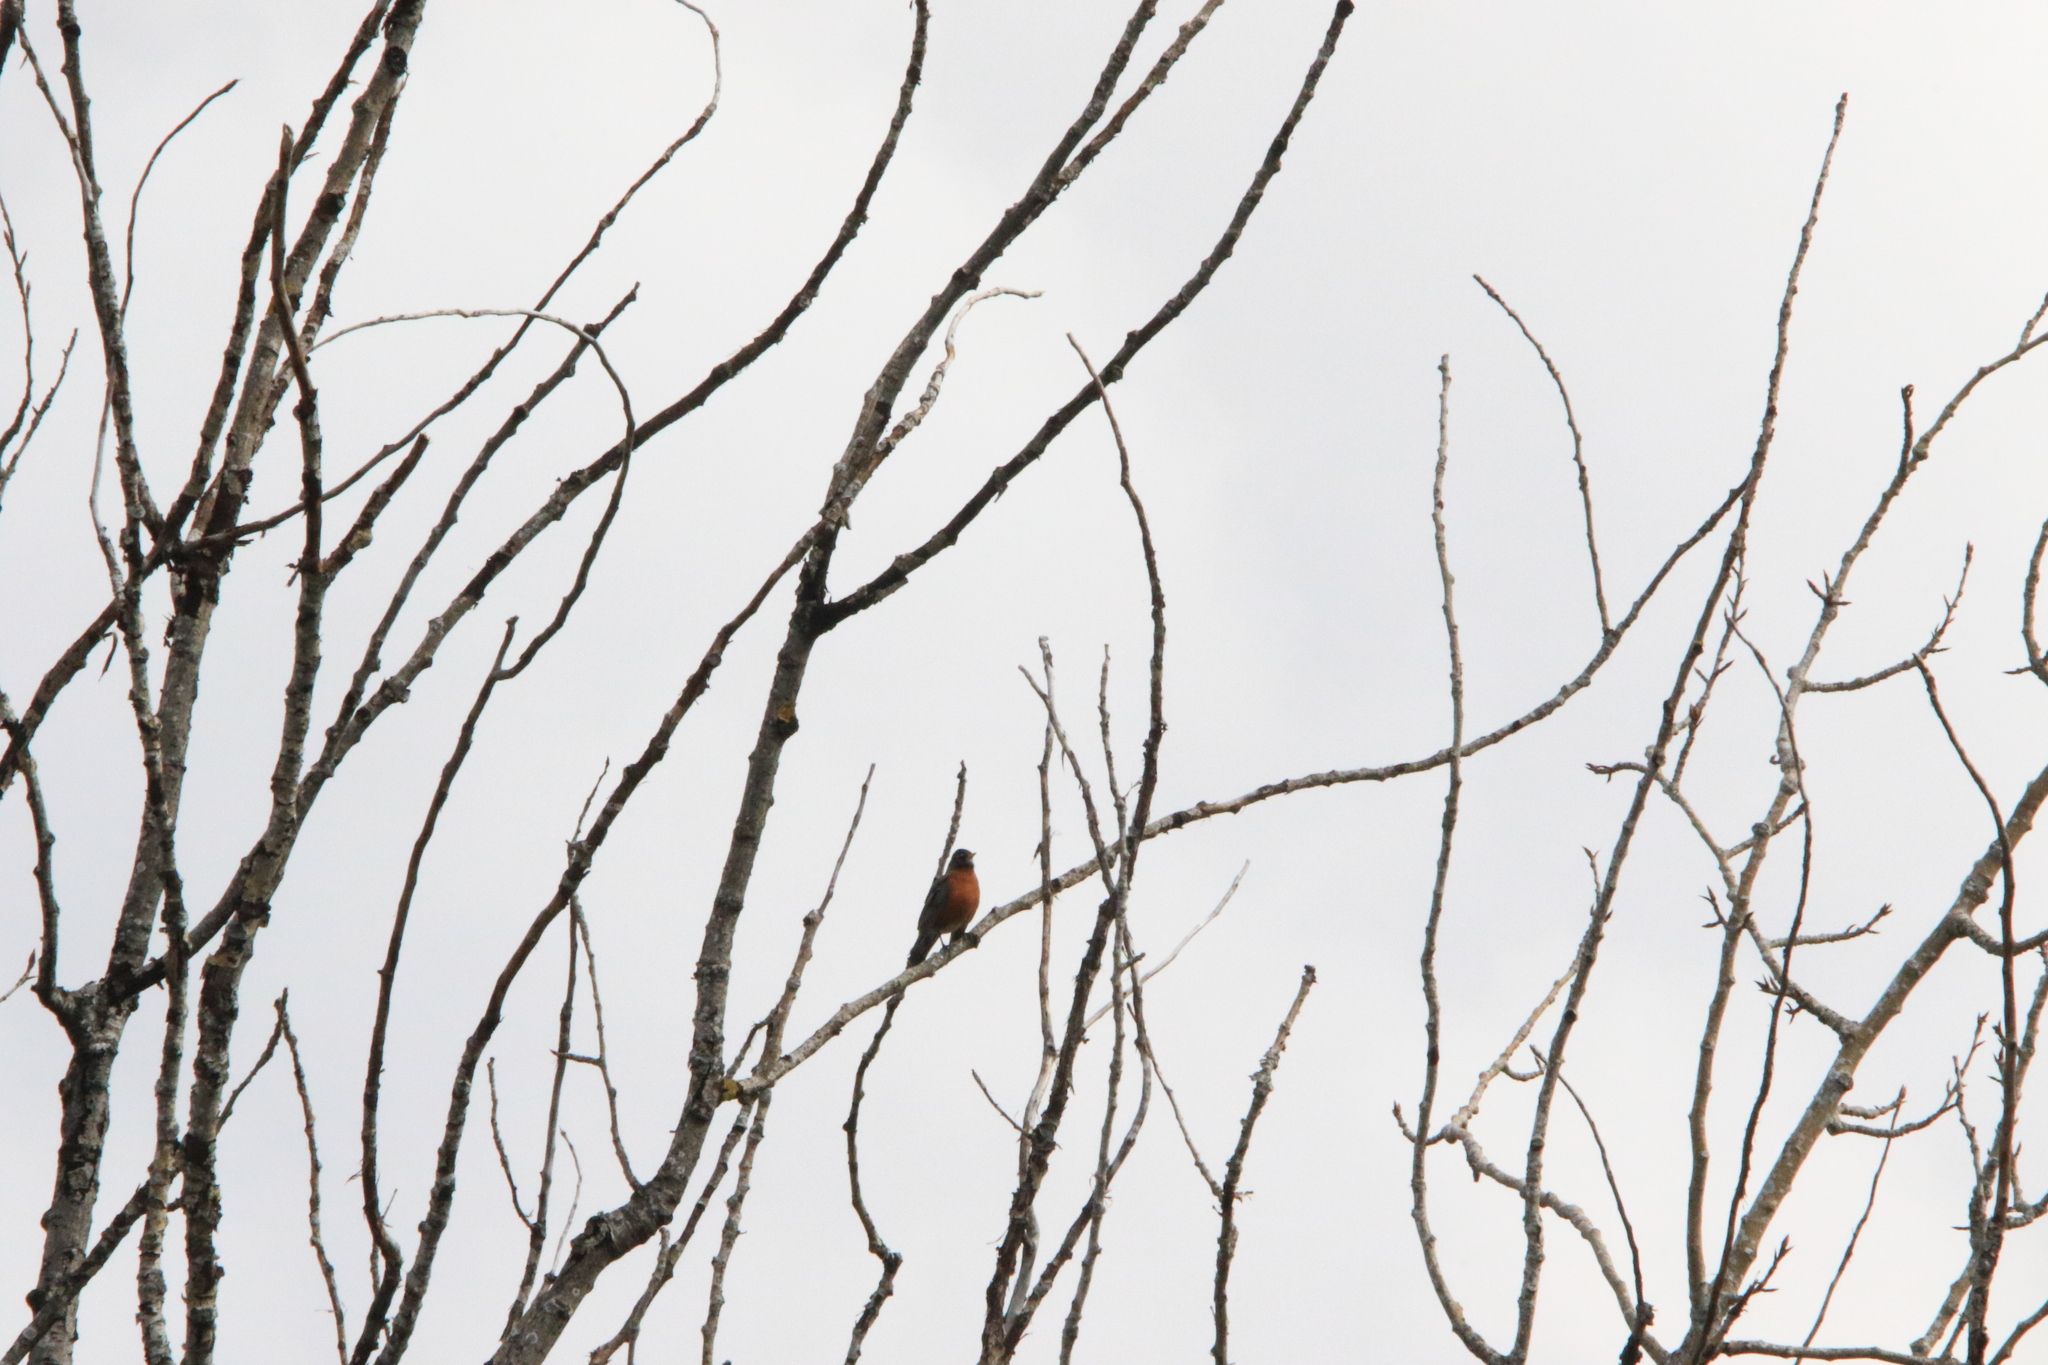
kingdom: Animalia
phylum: Chordata
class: Aves
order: Passeriformes
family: Turdidae
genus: Turdus
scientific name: Turdus migratorius
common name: American robin
